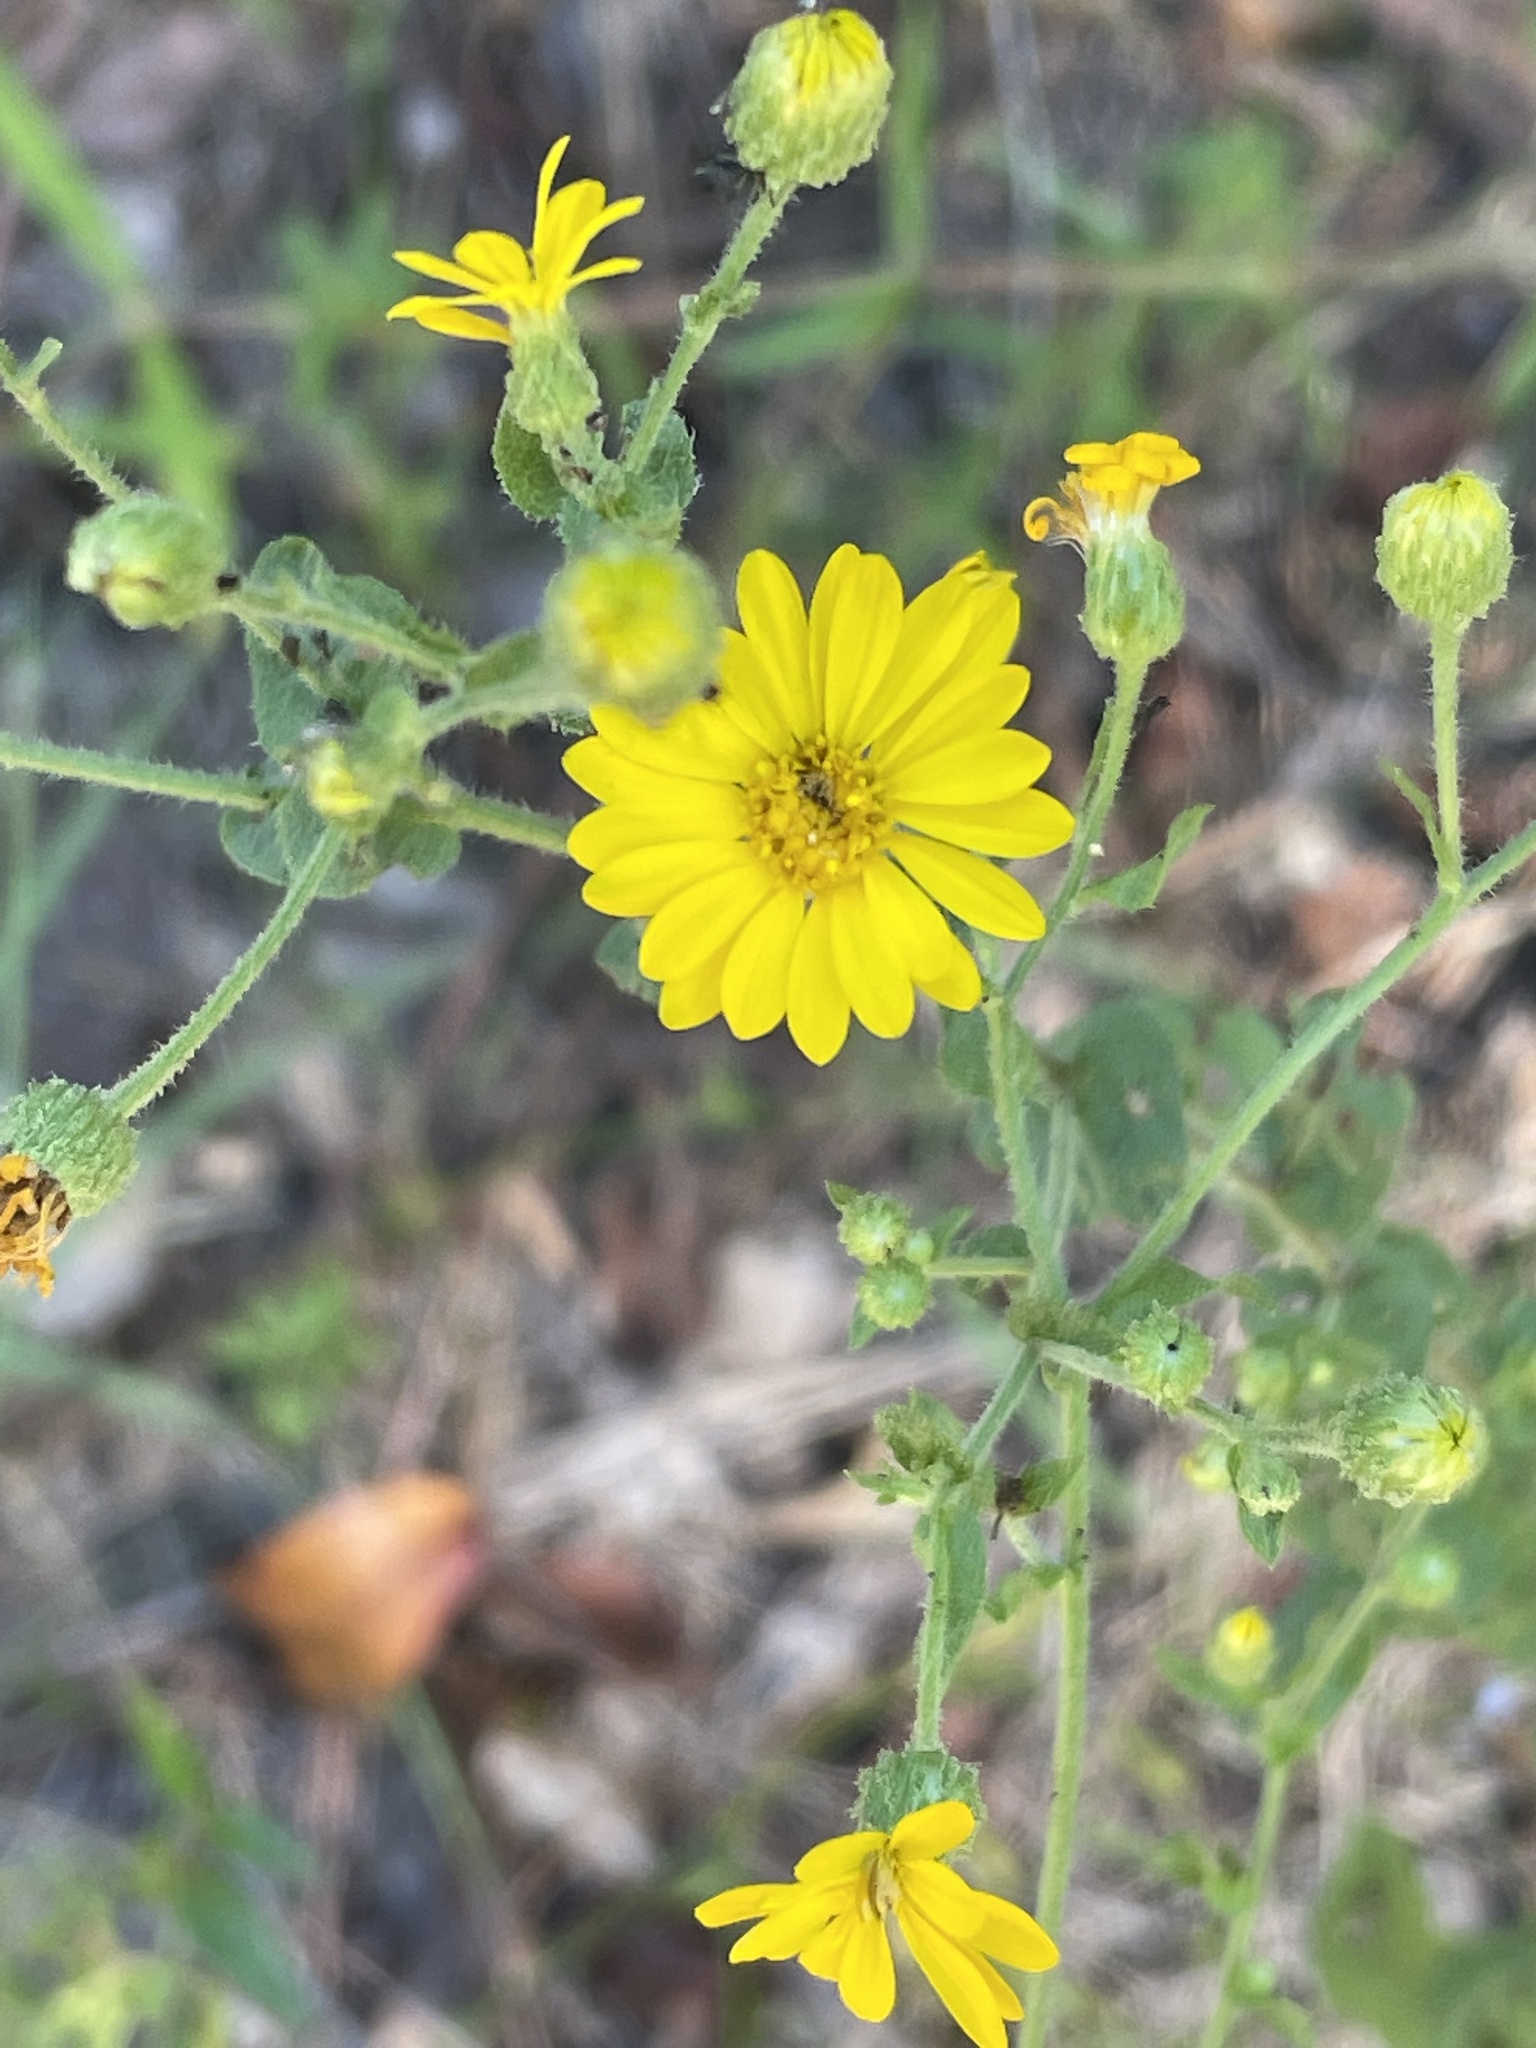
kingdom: Plantae
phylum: Tracheophyta
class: Magnoliopsida
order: Asterales
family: Asteraceae
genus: Heterotheca
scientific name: Heterotheca subaxillaris
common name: Camphorweed
